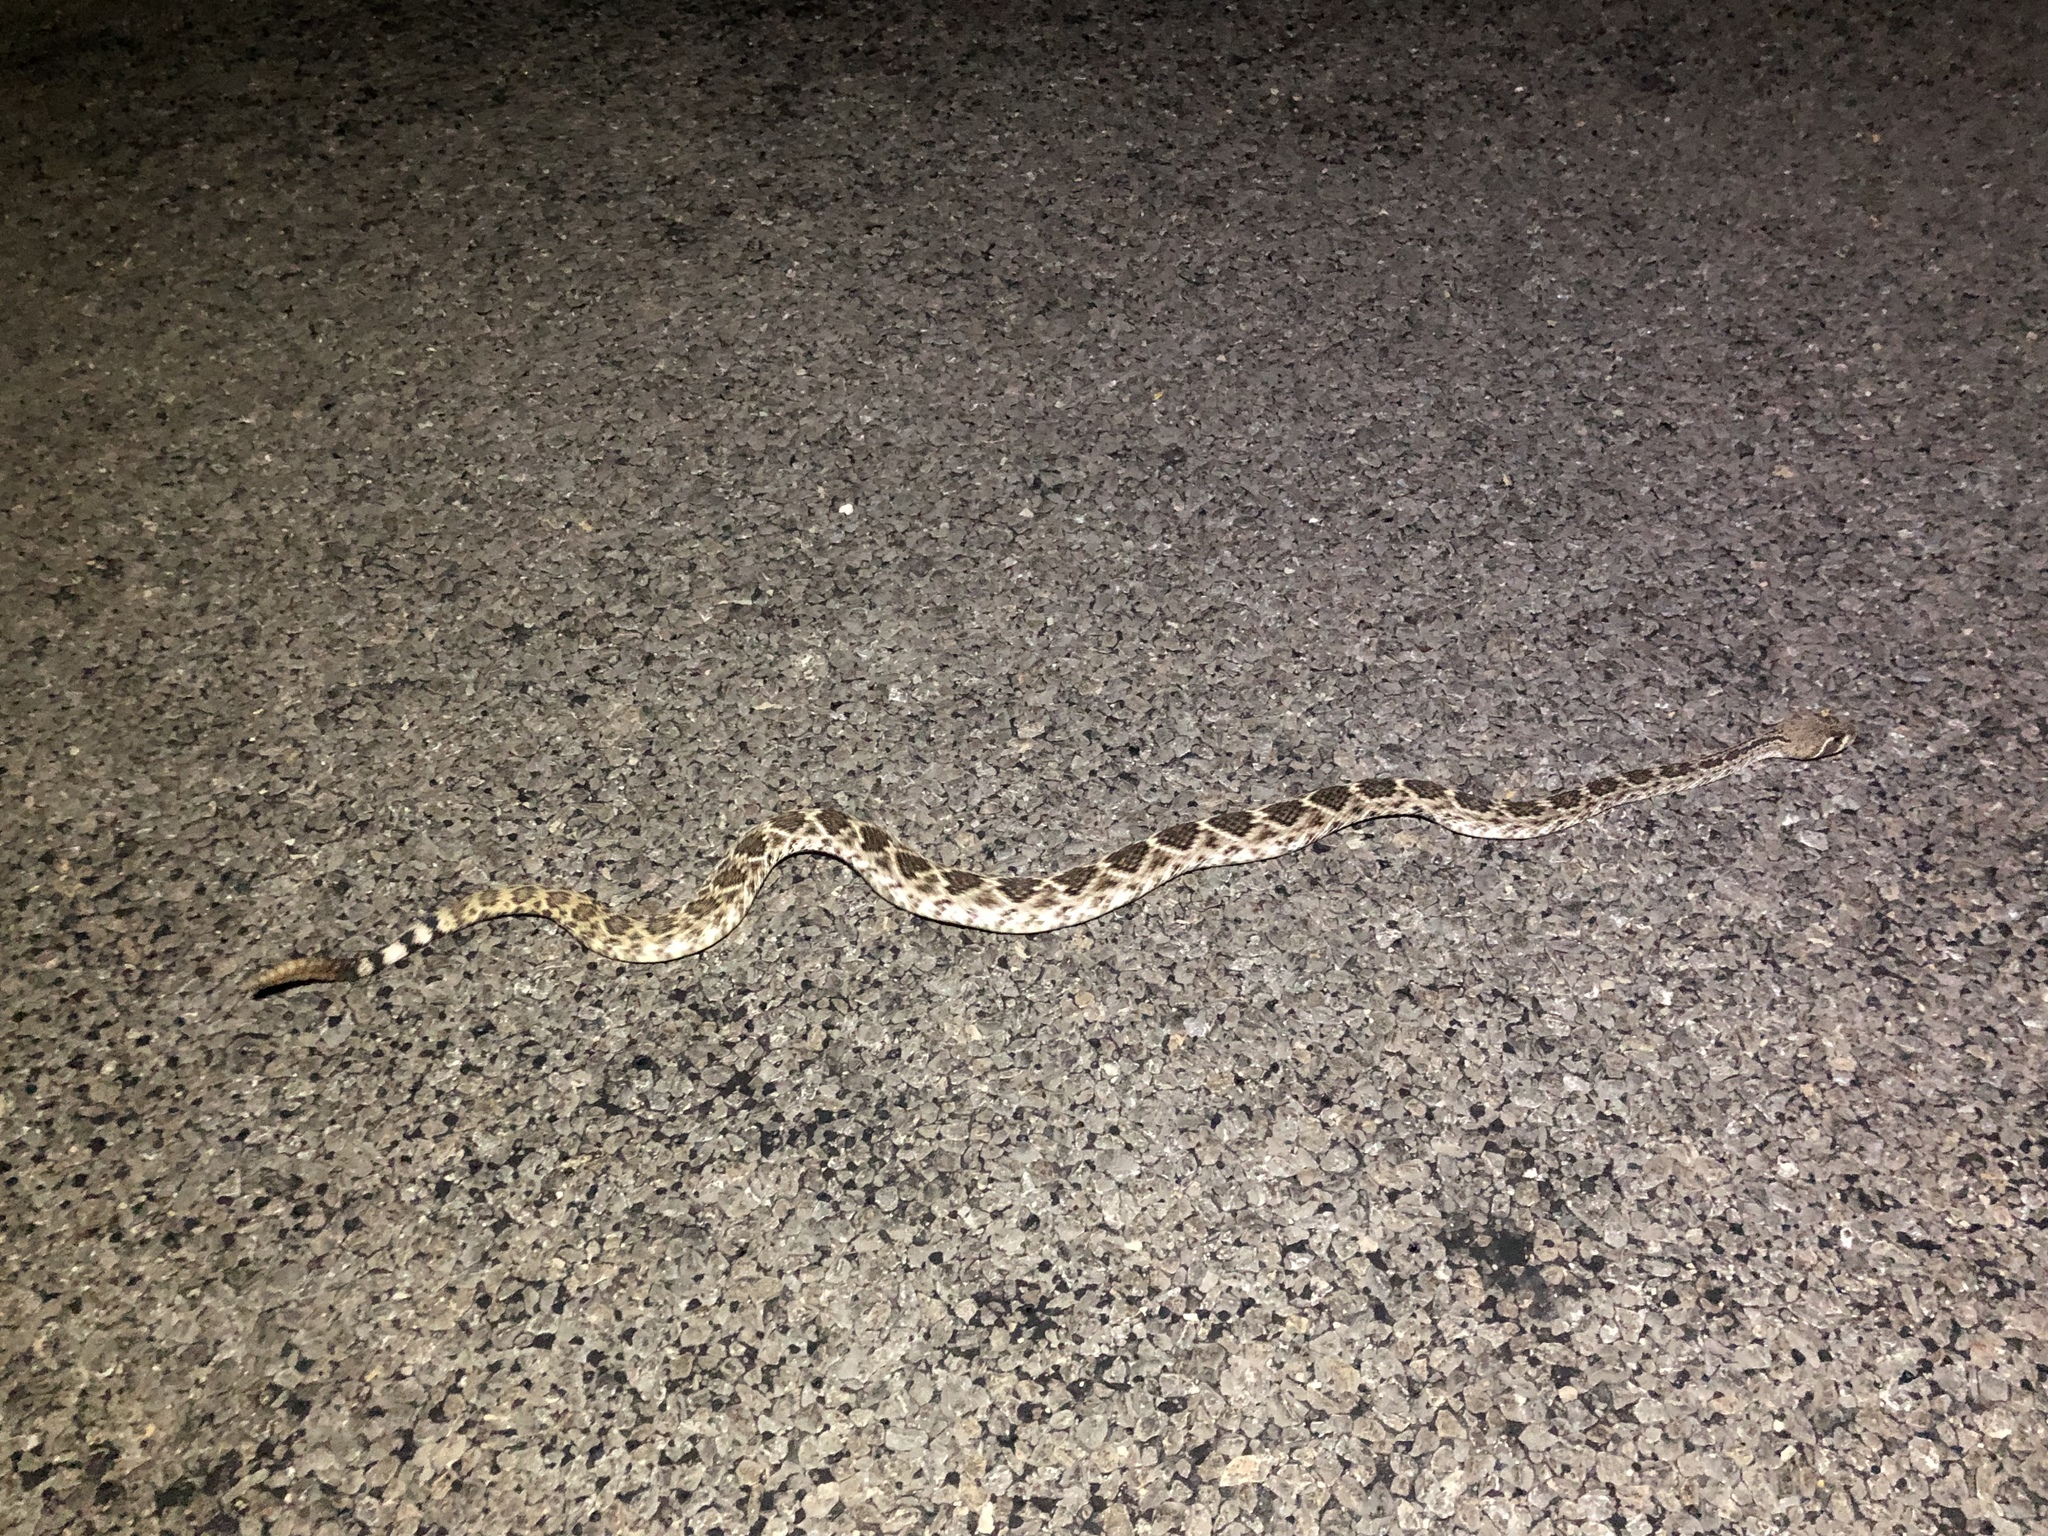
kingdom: Animalia
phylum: Chordata
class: Squamata
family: Viperidae
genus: Crotalus
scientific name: Crotalus atrox
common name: Western diamond-backed rattlesnake
